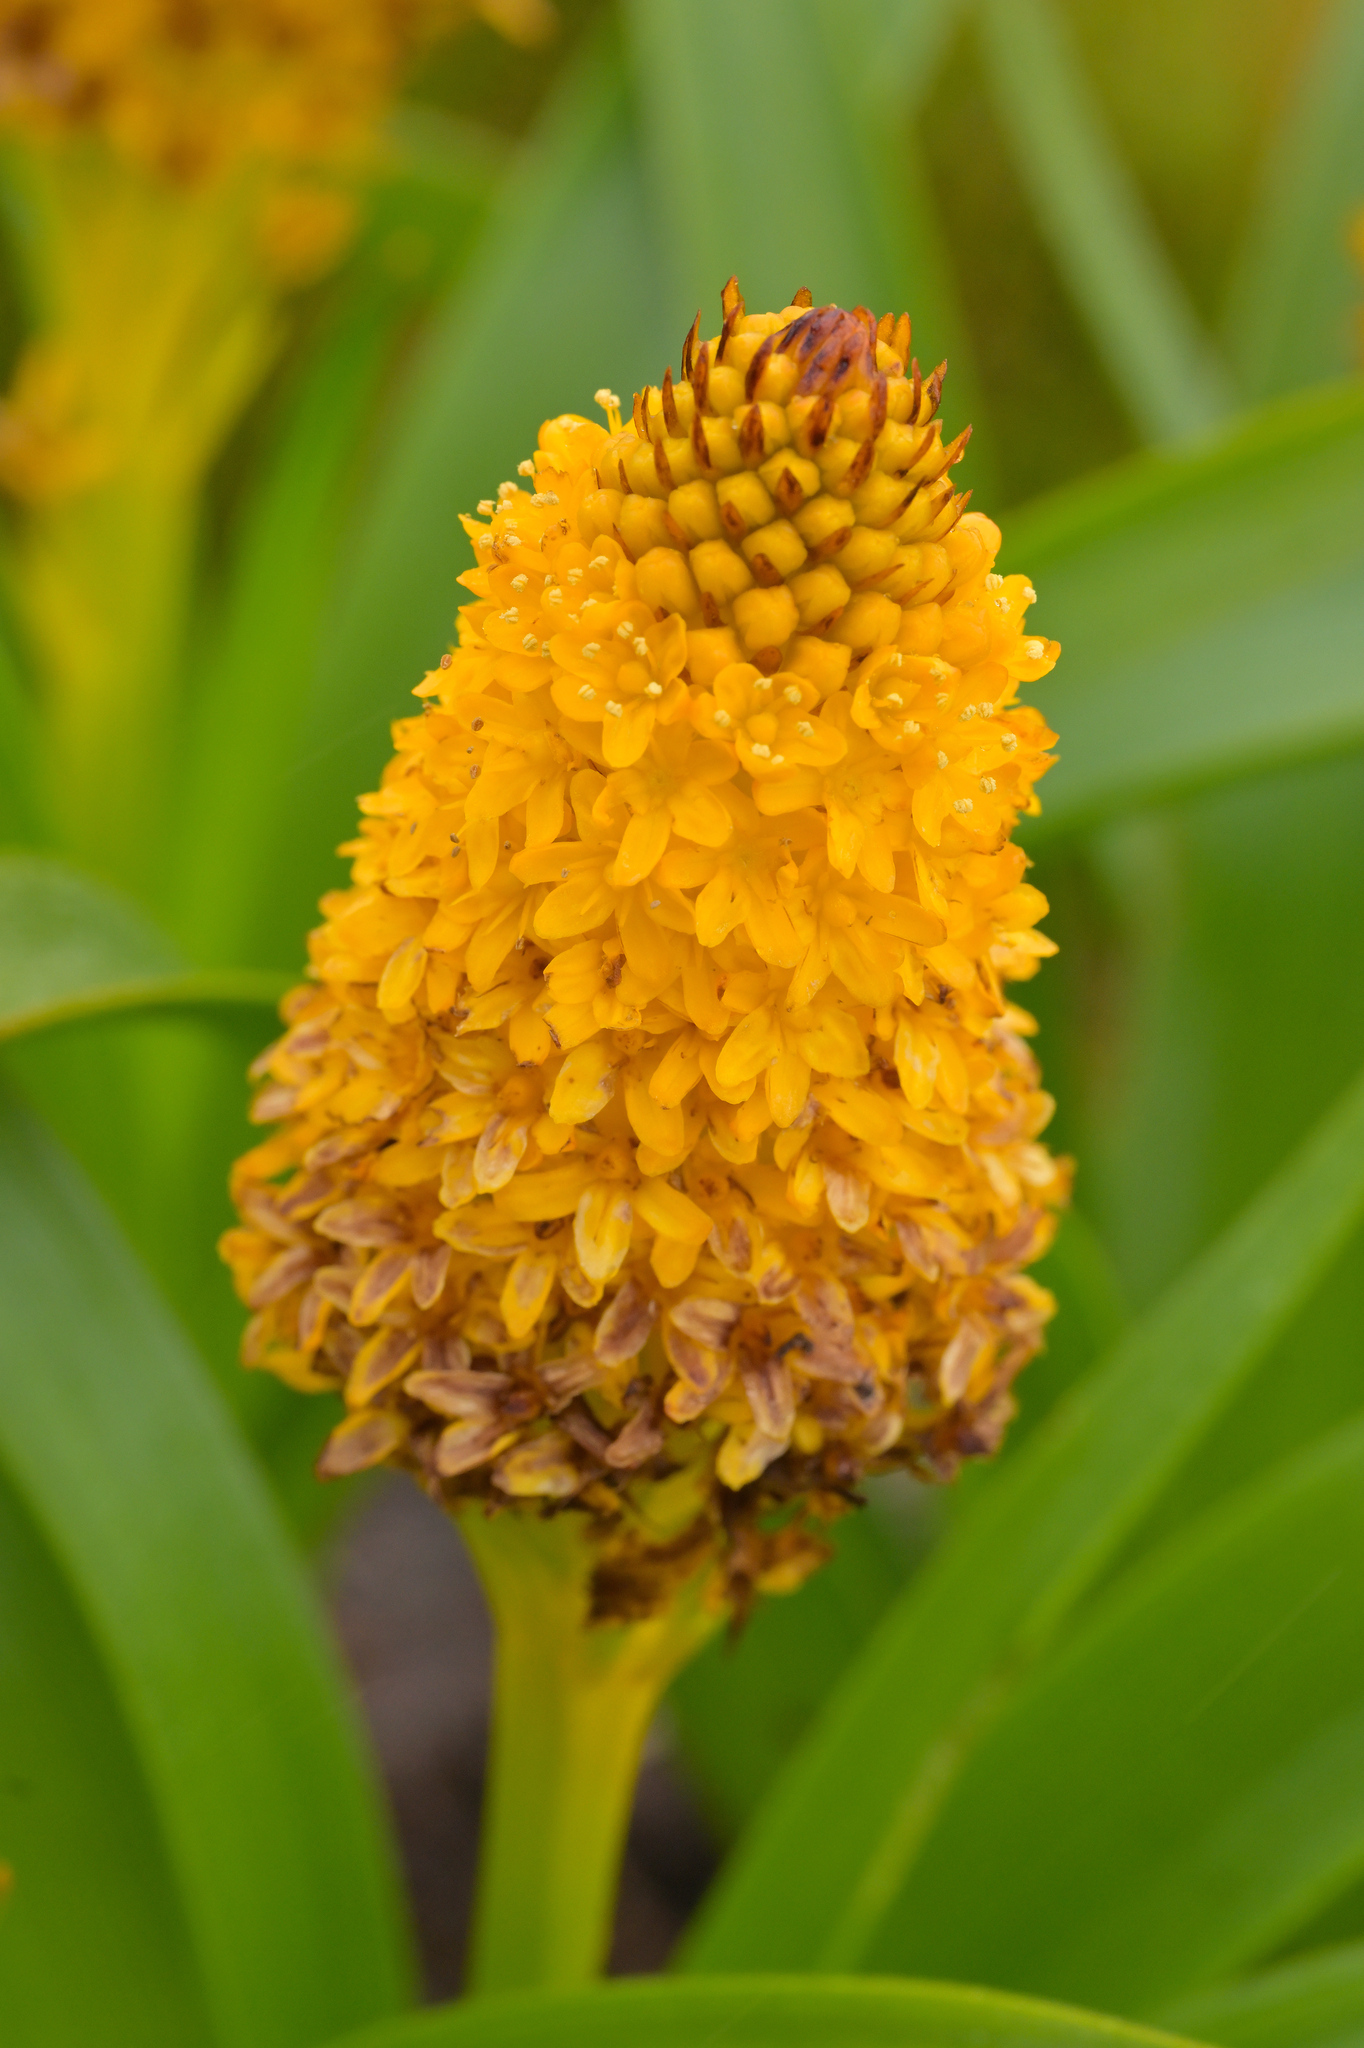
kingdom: Plantae
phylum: Tracheophyta
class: Liliopsida
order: Asparagales
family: Asphodelaceae
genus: Bulbinella
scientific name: Bulbinella rossii
